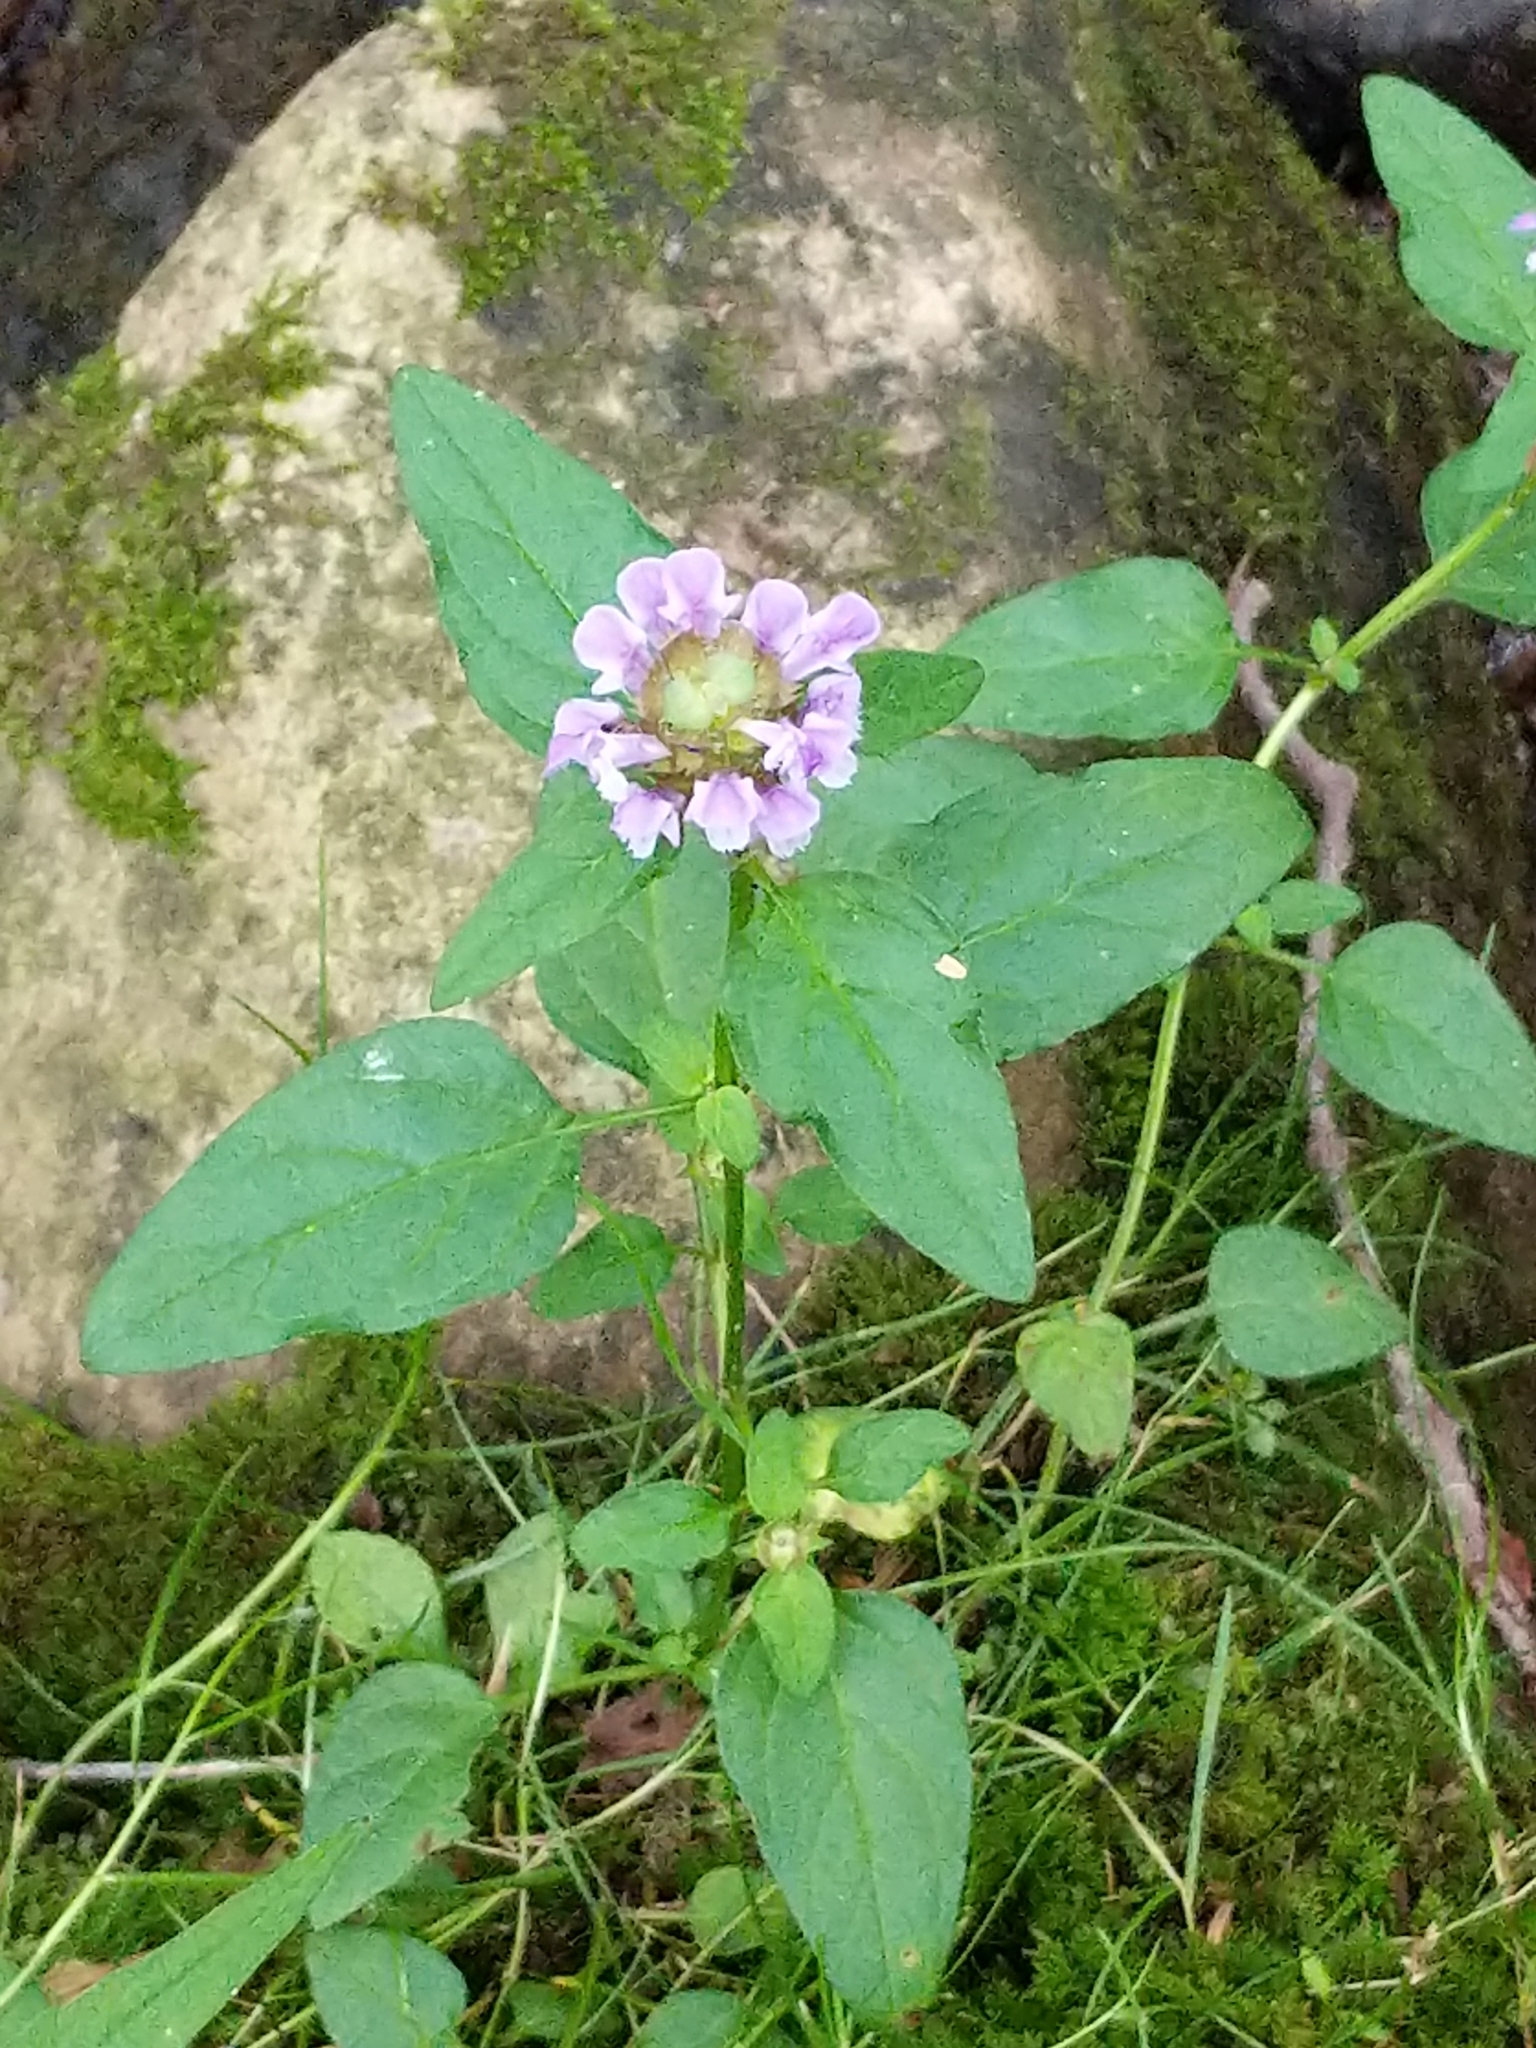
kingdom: Plantae
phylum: Tracheophyta
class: Magnoliopsida
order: Lamiales
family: Lamiaceae
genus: Prunella
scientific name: Prunella vulgaris
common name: Heal-all
